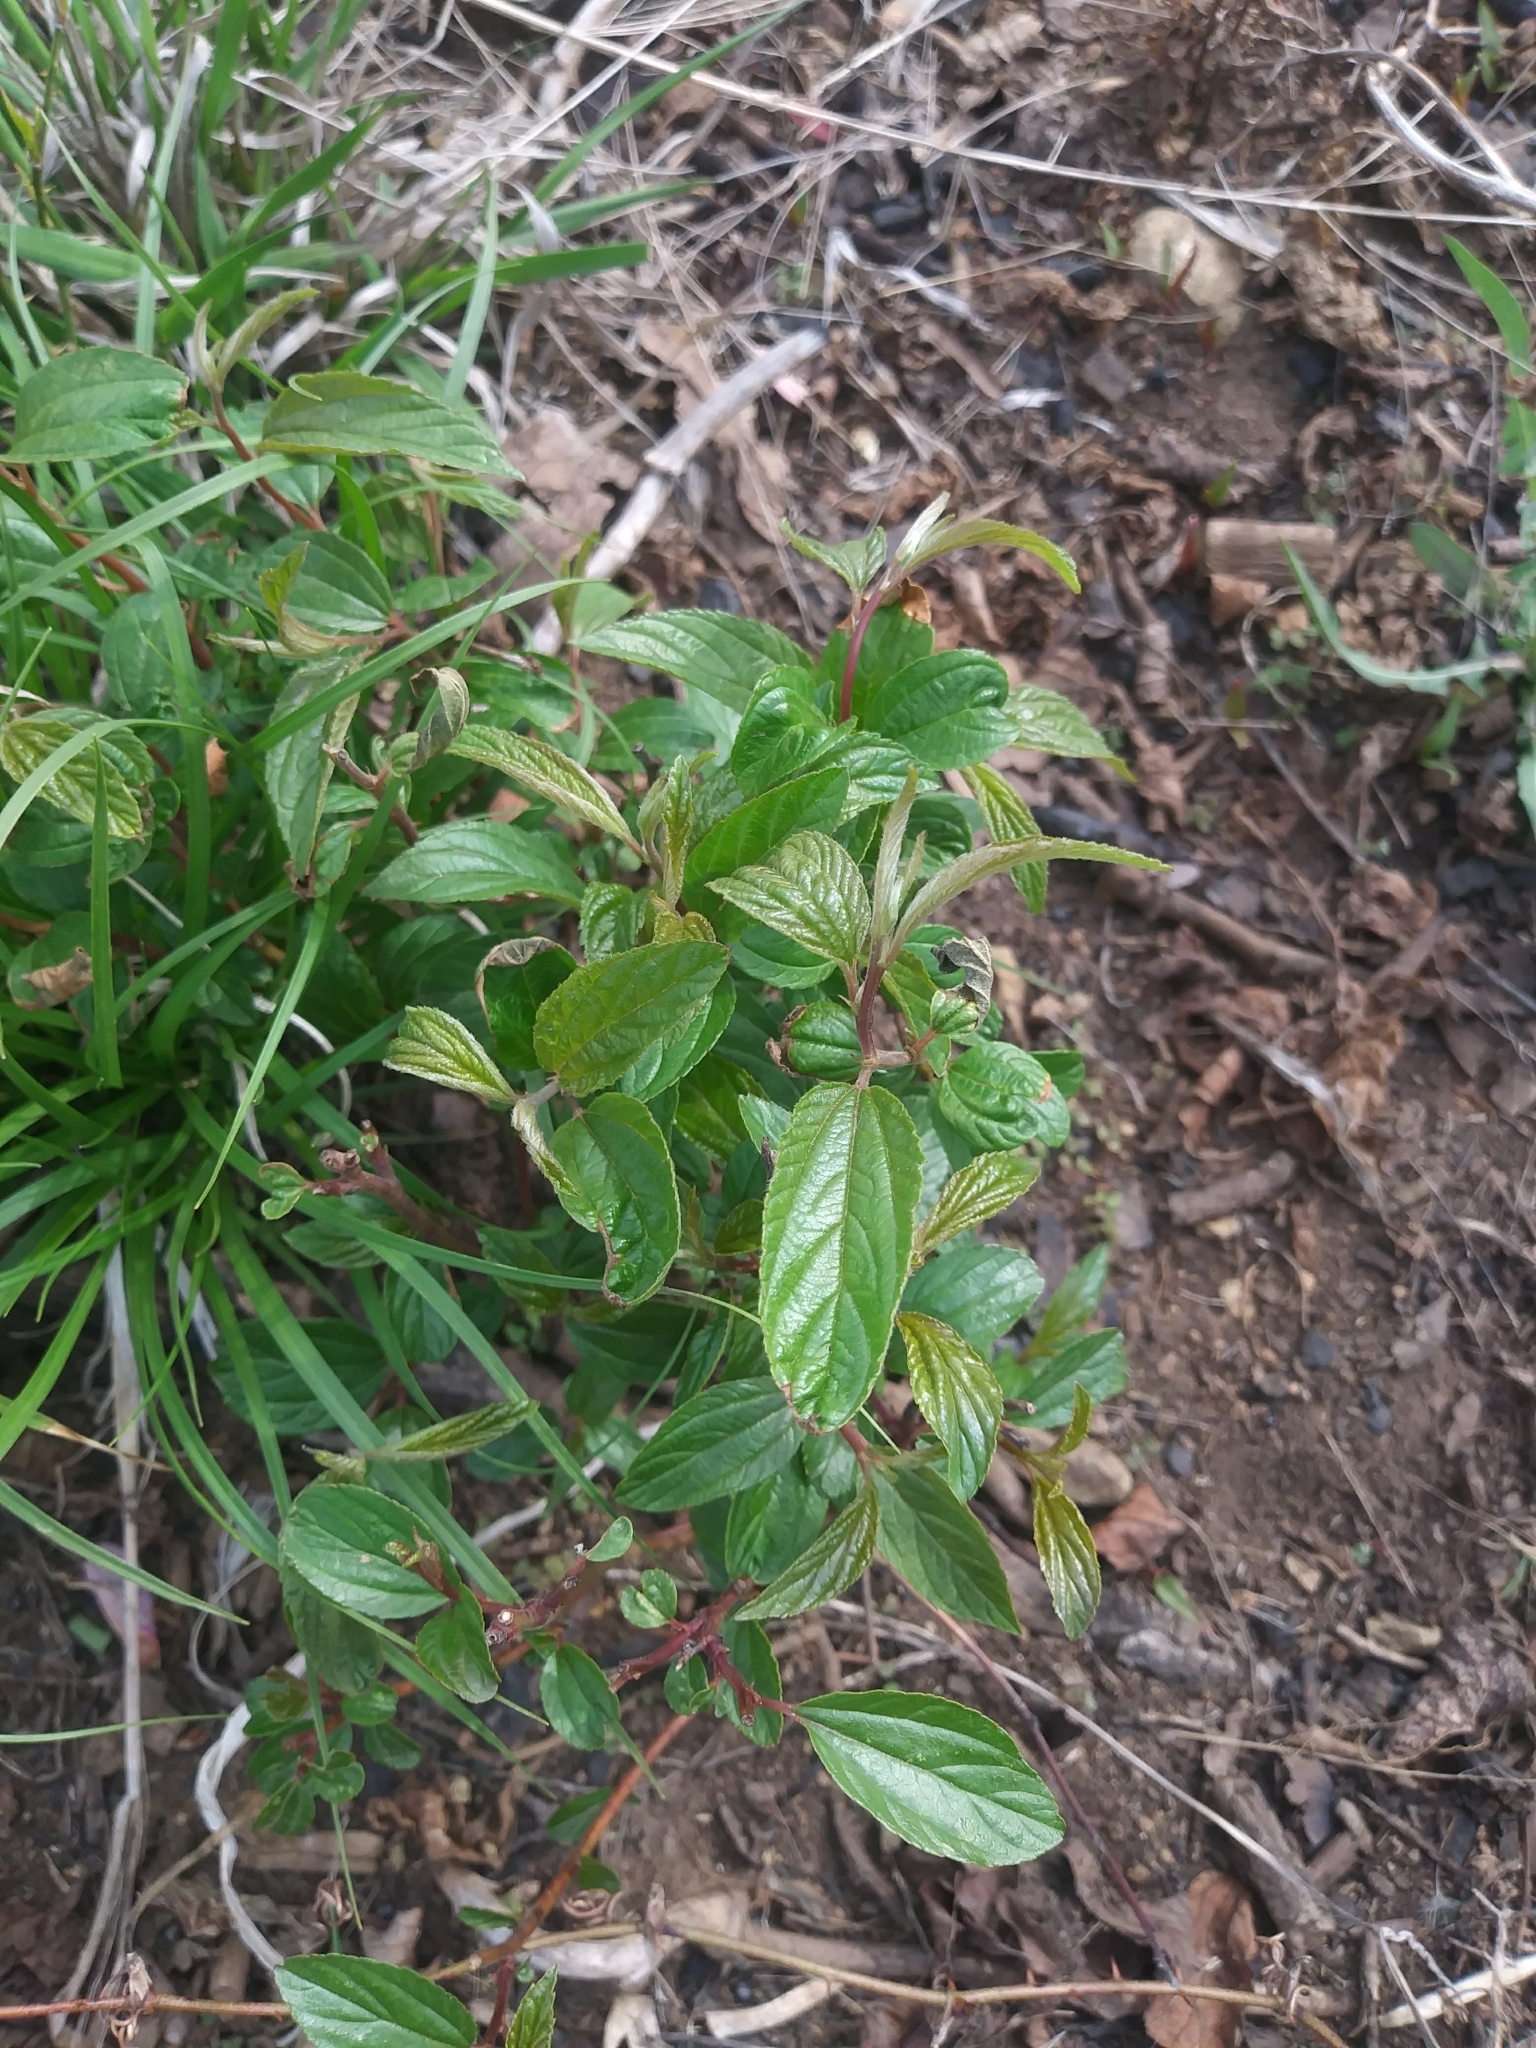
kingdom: Plantae
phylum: Tracheophyta
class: Magnoliopsida
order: Rosales
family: Rhamnaceae
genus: Ceanothus
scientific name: Ceanothus americanus
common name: Redroot
